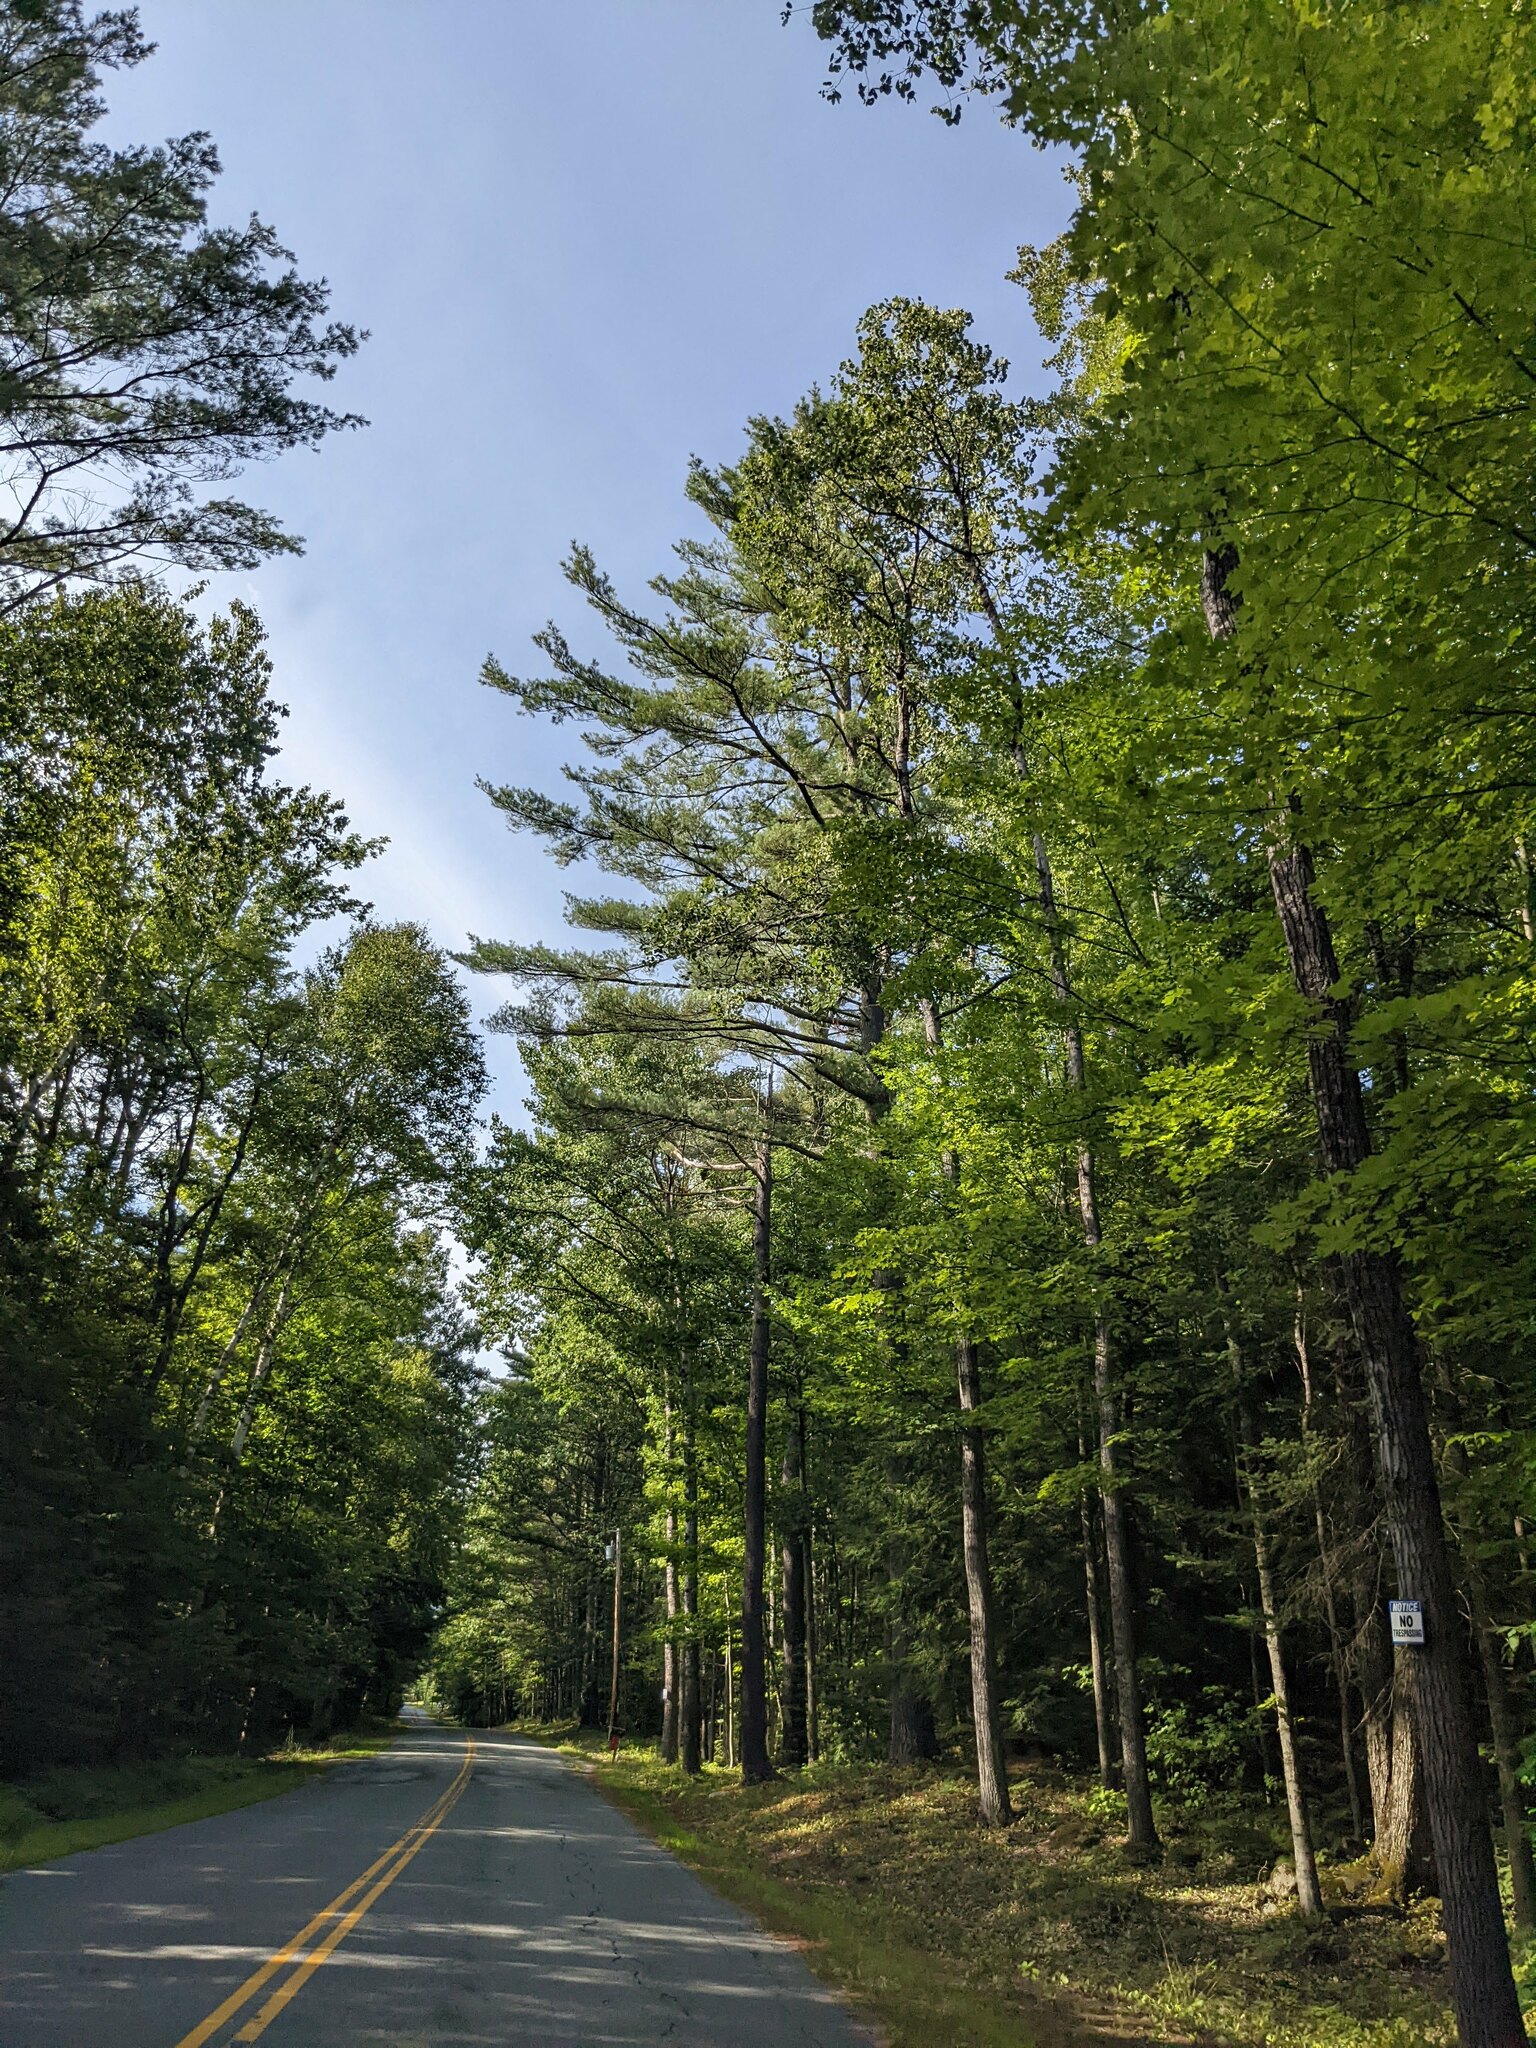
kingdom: Plantae
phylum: Tracheophyta
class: Pinopsida
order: Pinales
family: Pinaceae
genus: Pinus
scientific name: Pinus strobus
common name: Weymouth pine
